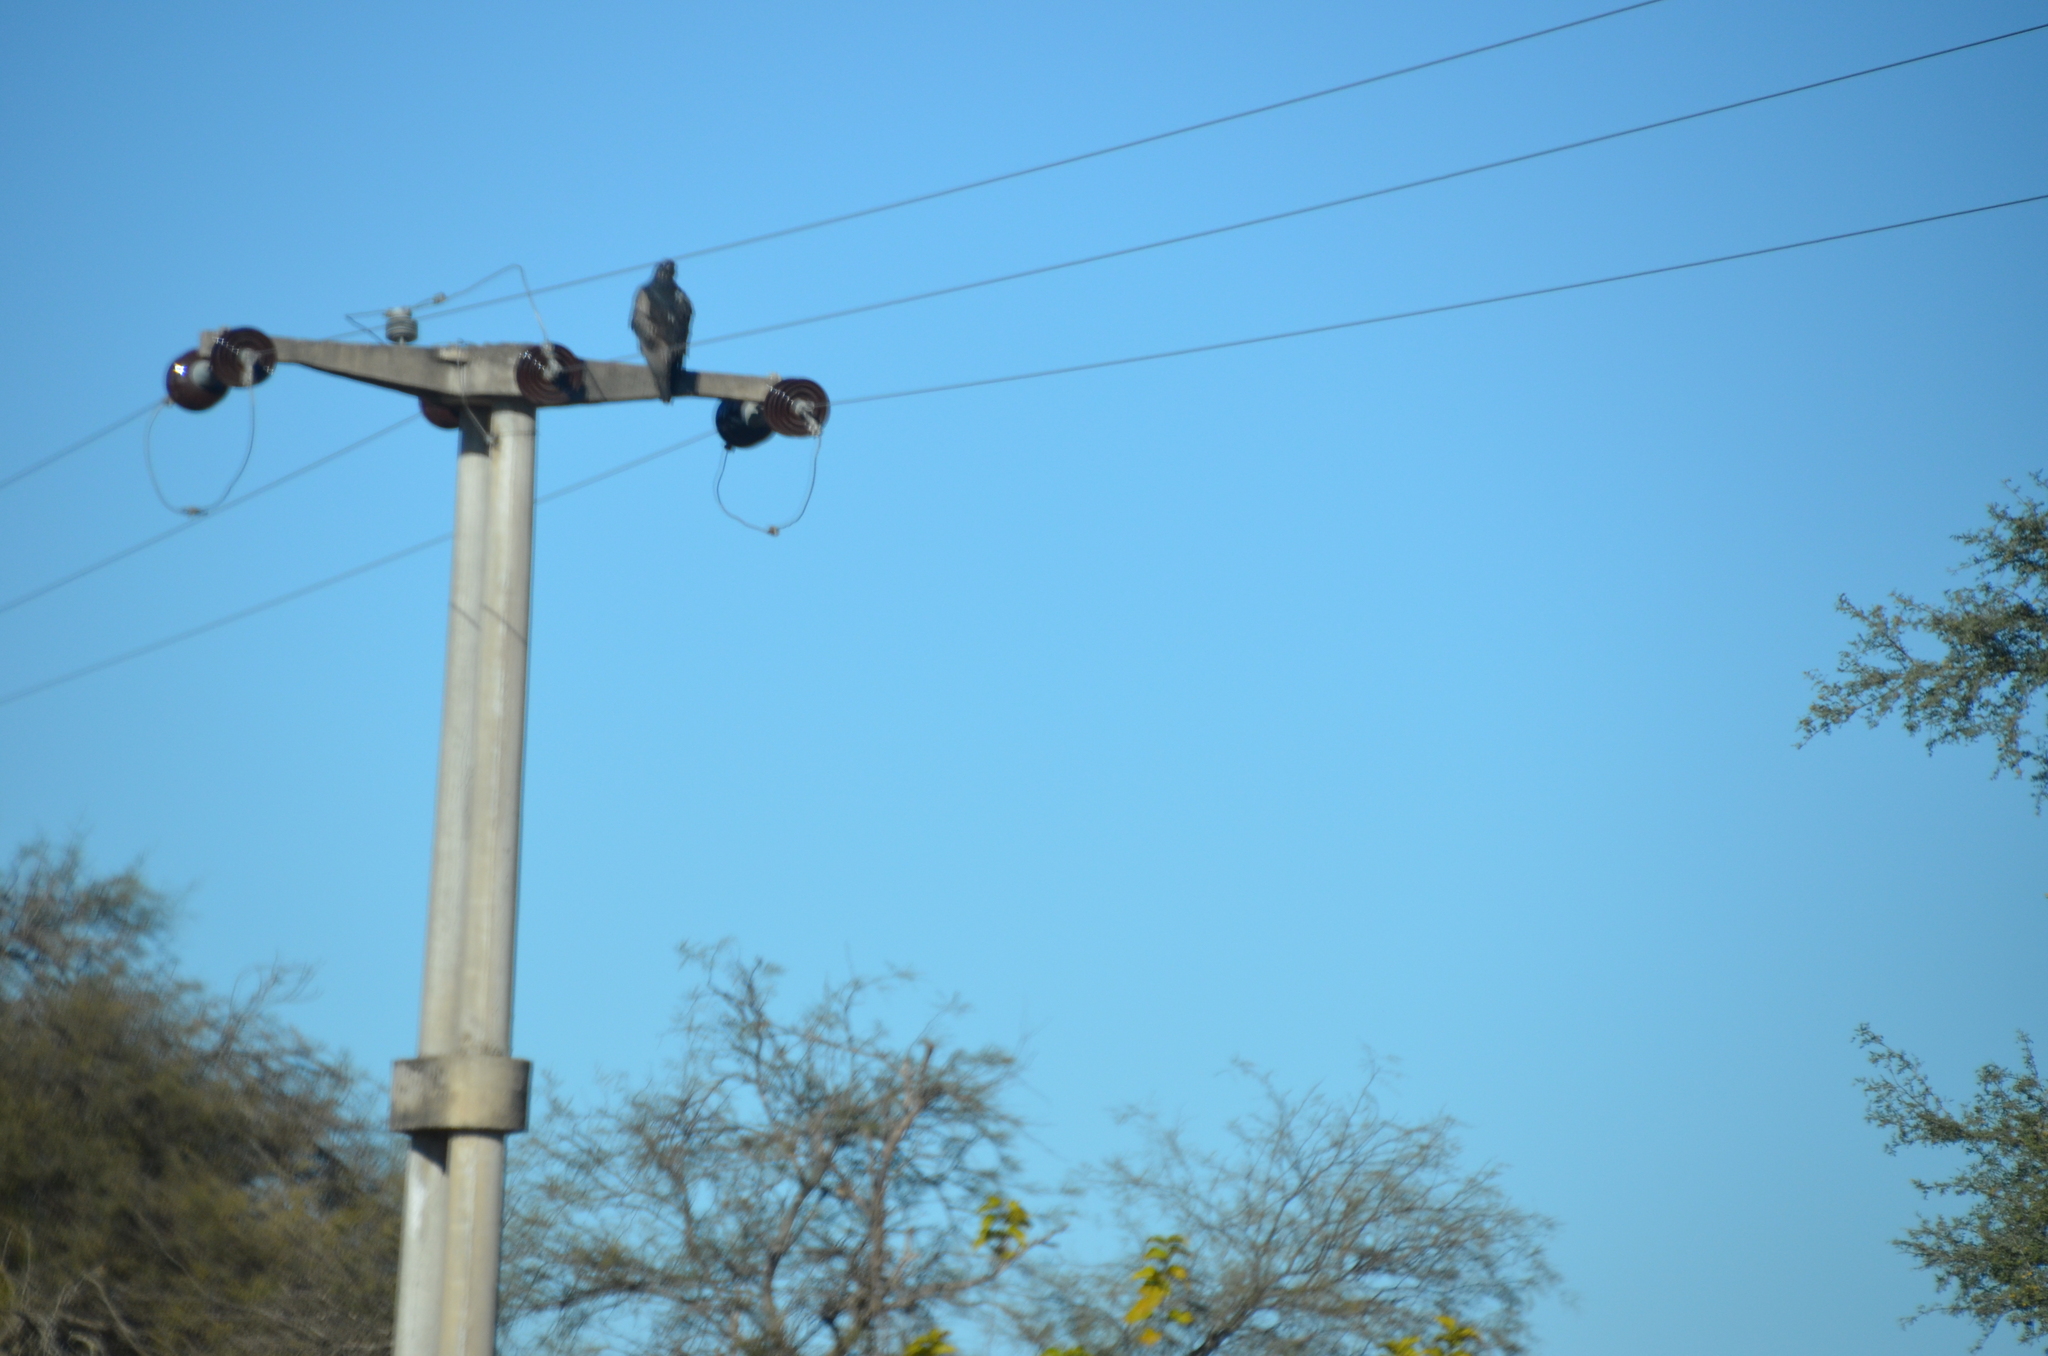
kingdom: Animalia
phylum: Chordata
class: Aves
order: Accipitriformes
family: Accipitridae
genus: Geranoaetus
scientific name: Geranoaetus melanoleucus
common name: Black-chested buzzard-eagle
